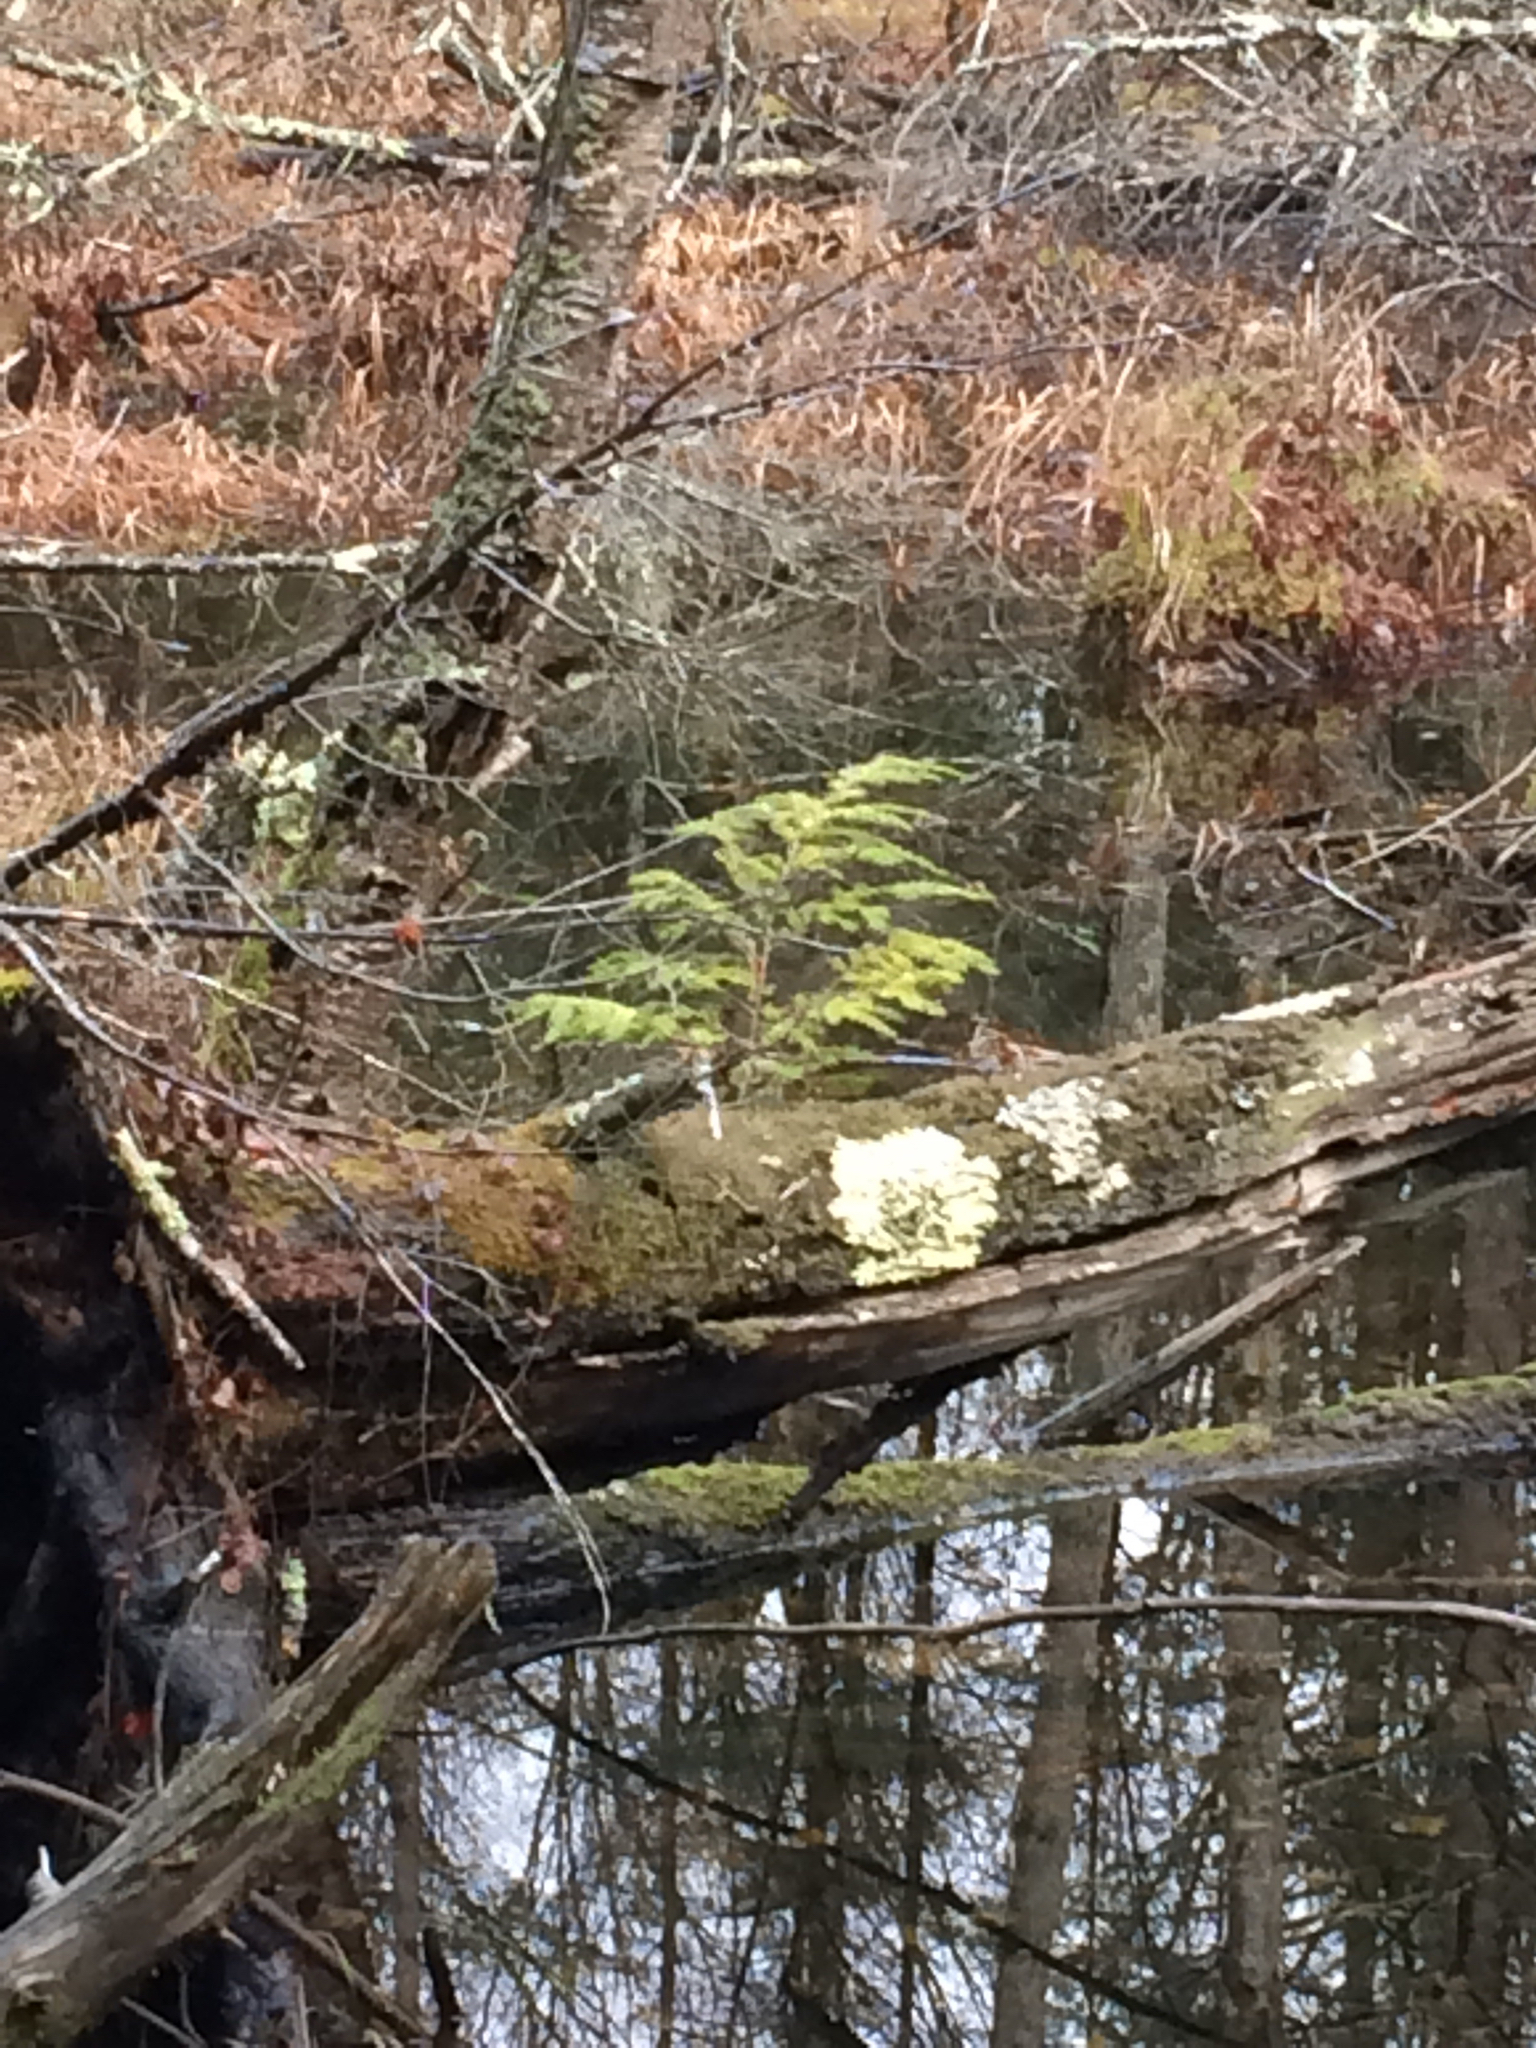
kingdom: Plantae
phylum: Tracheophyta
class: Pinopsida
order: Pinales
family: Pinaceae
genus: Tsuga
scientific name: Tsuga canadensis
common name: Eastern hemlock
